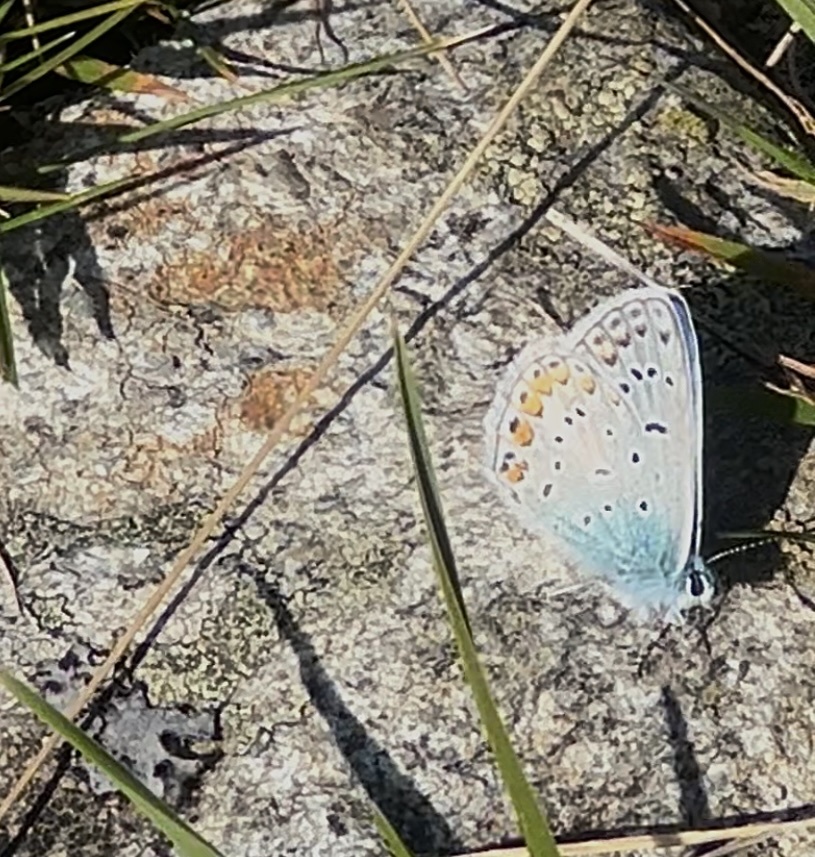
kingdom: Animalia
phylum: Arthropoda
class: Insecta
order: Lepidoptera
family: Lycaenidae
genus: Polyommatus
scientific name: Polyommatus icarus
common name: Common blue
